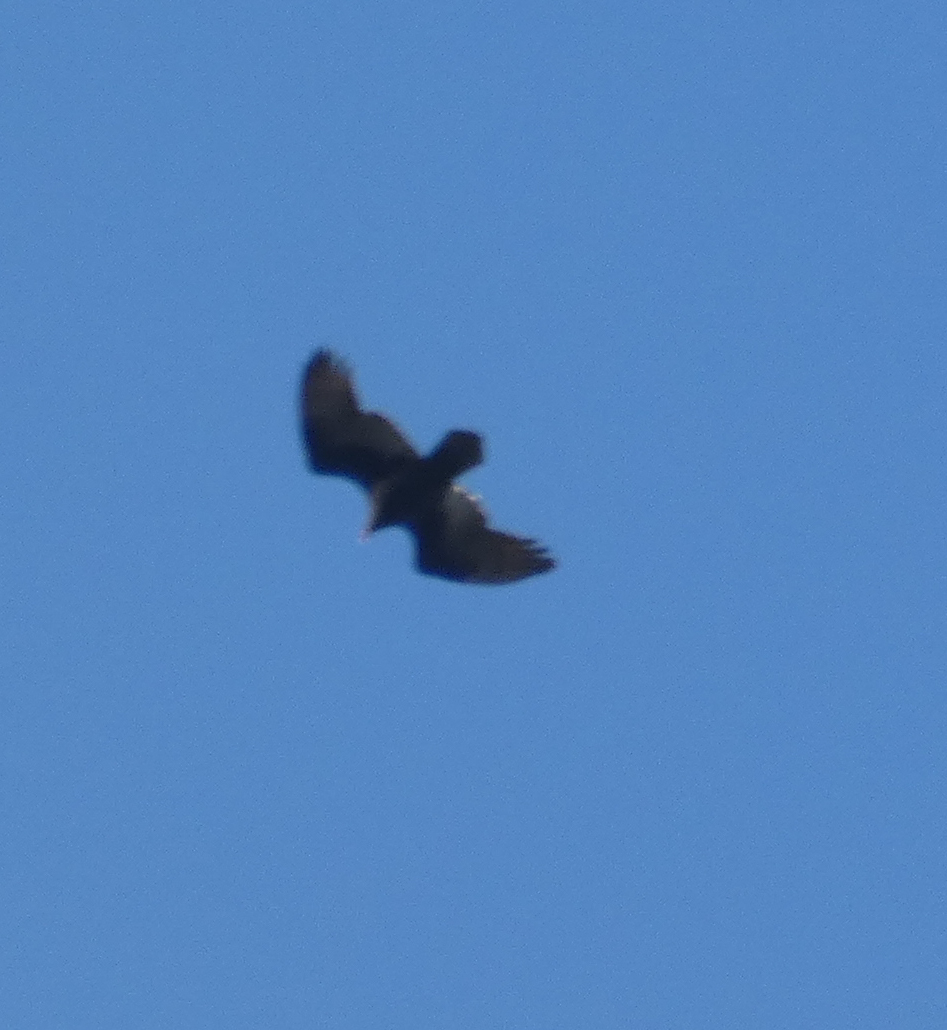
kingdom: Animalia
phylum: Chordata
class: Aves
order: Accipitriformes
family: Cathartidae
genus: Cathartes
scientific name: Cathartes aura
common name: Turkey vulture
